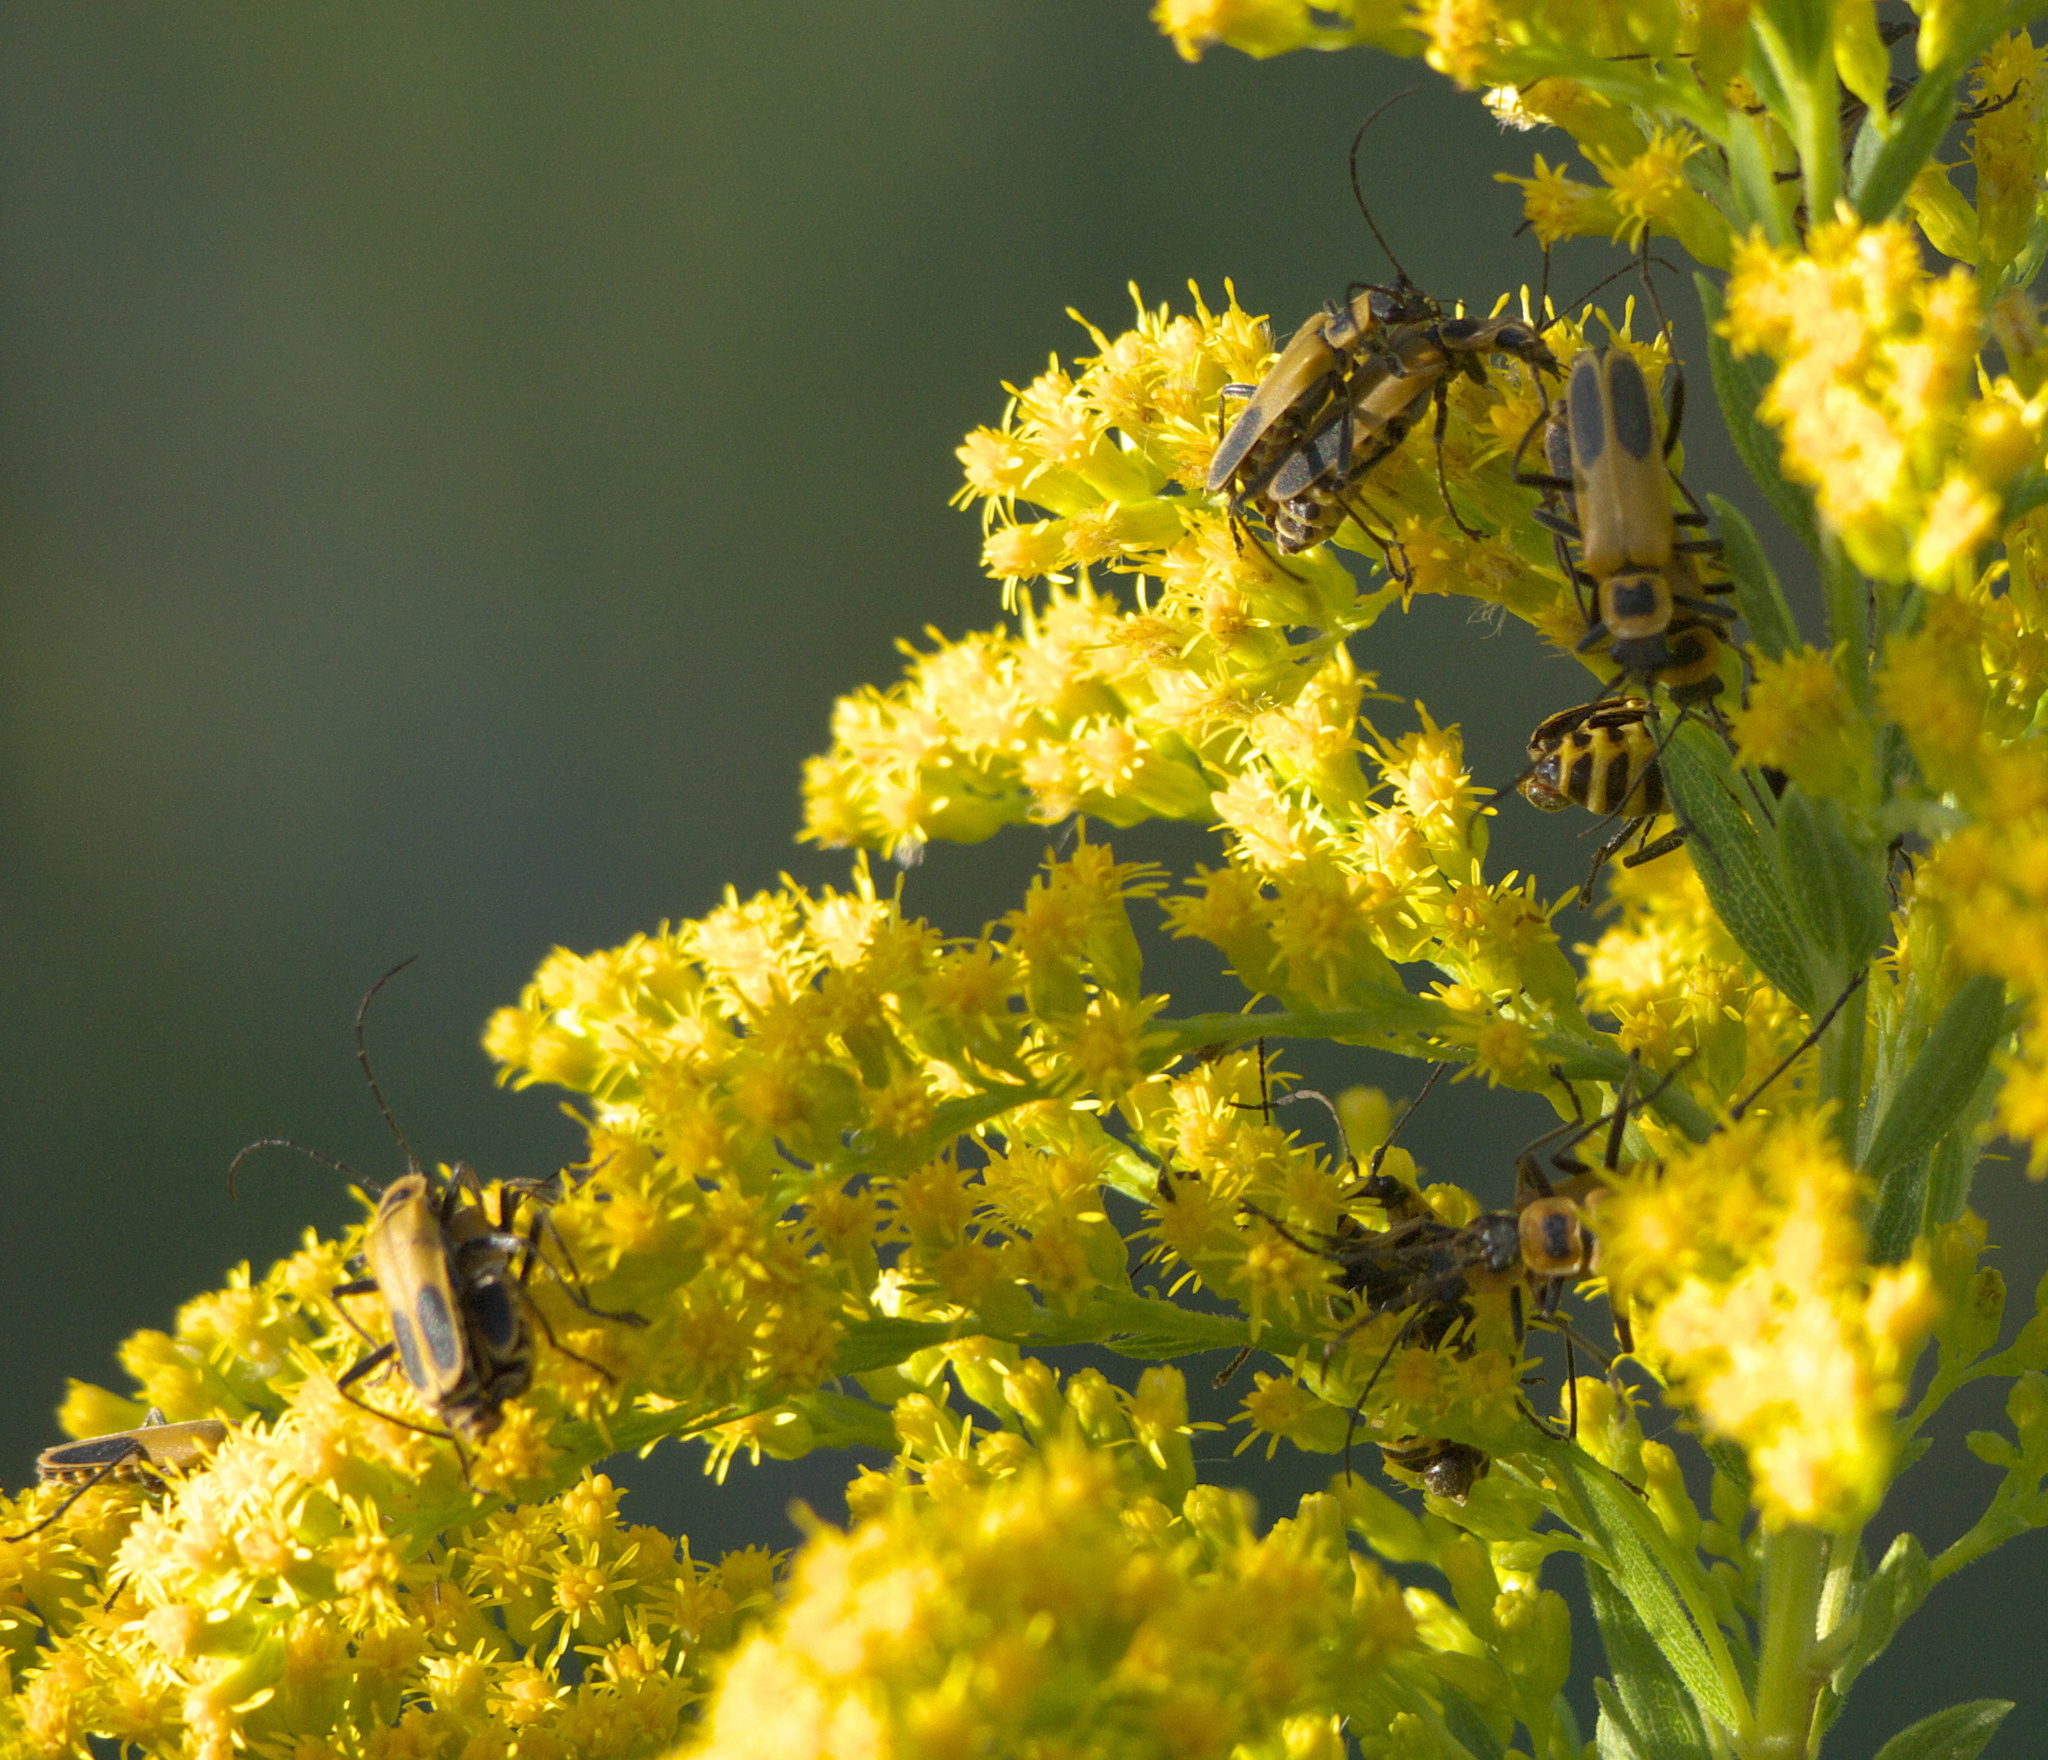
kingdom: Animalia
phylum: Arthropoda
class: Insecta
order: Coleoptera
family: Cantharidae
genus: Chauliognathus
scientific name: Chauliognathus pensylvanicus
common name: Goldenrod soldier beetle
